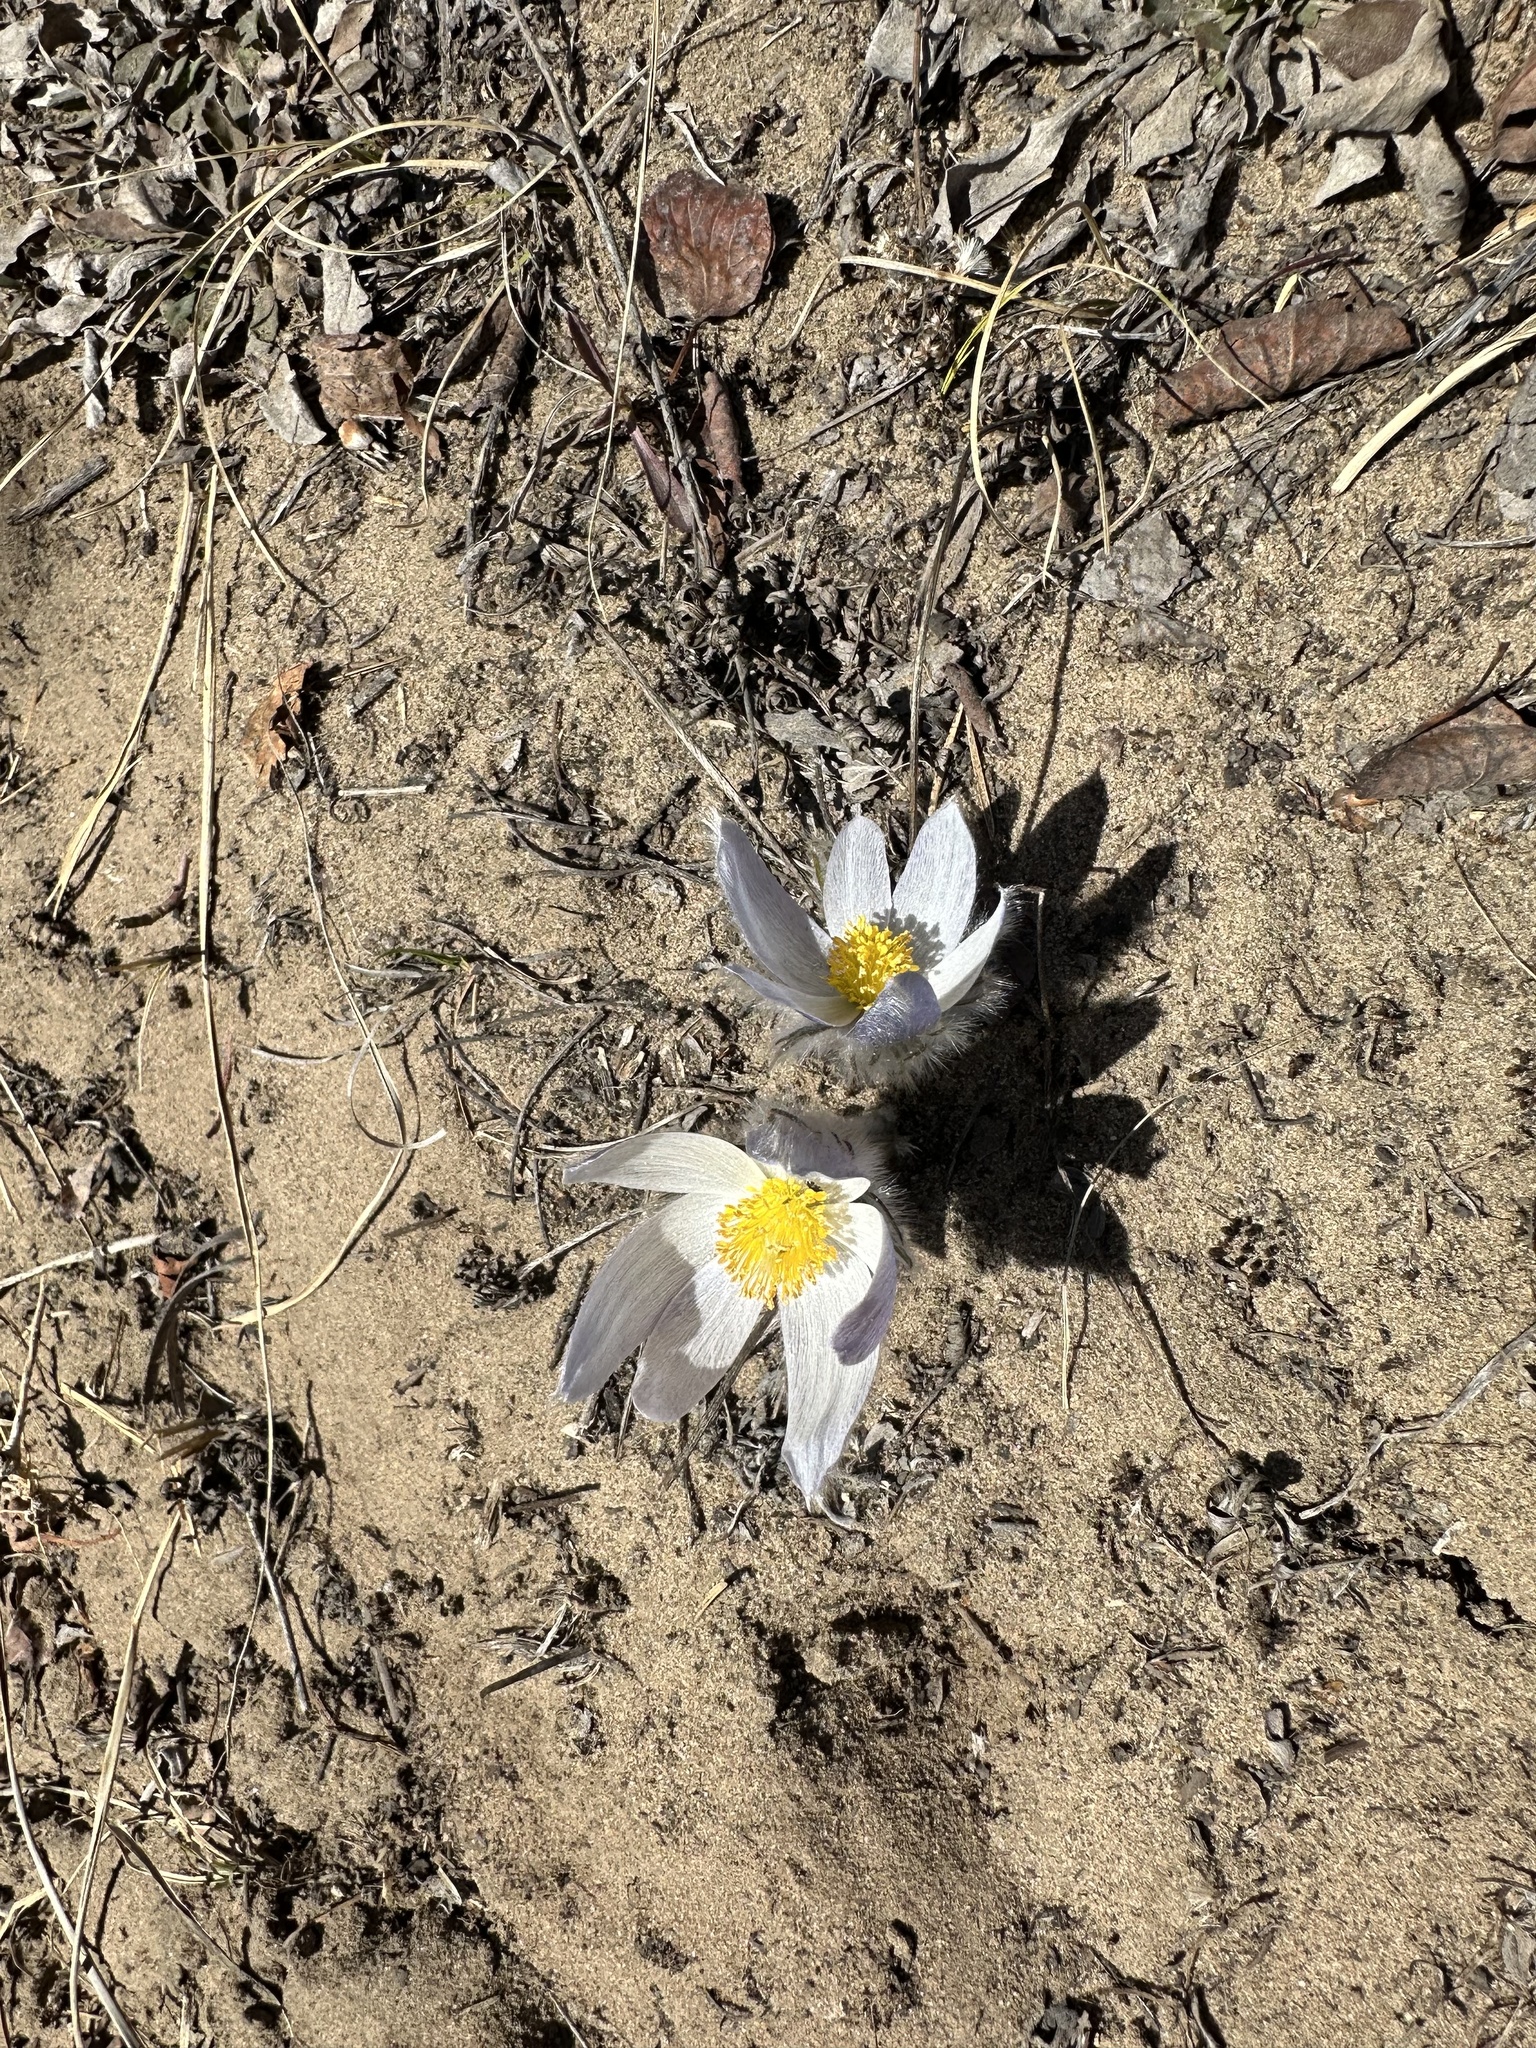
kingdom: Plantae
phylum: Tracheophyta
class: Magnoliopsida
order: Ranunculales
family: Ranunculaceae
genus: Pulsatilla
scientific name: Pulsatilla nuttalliana
